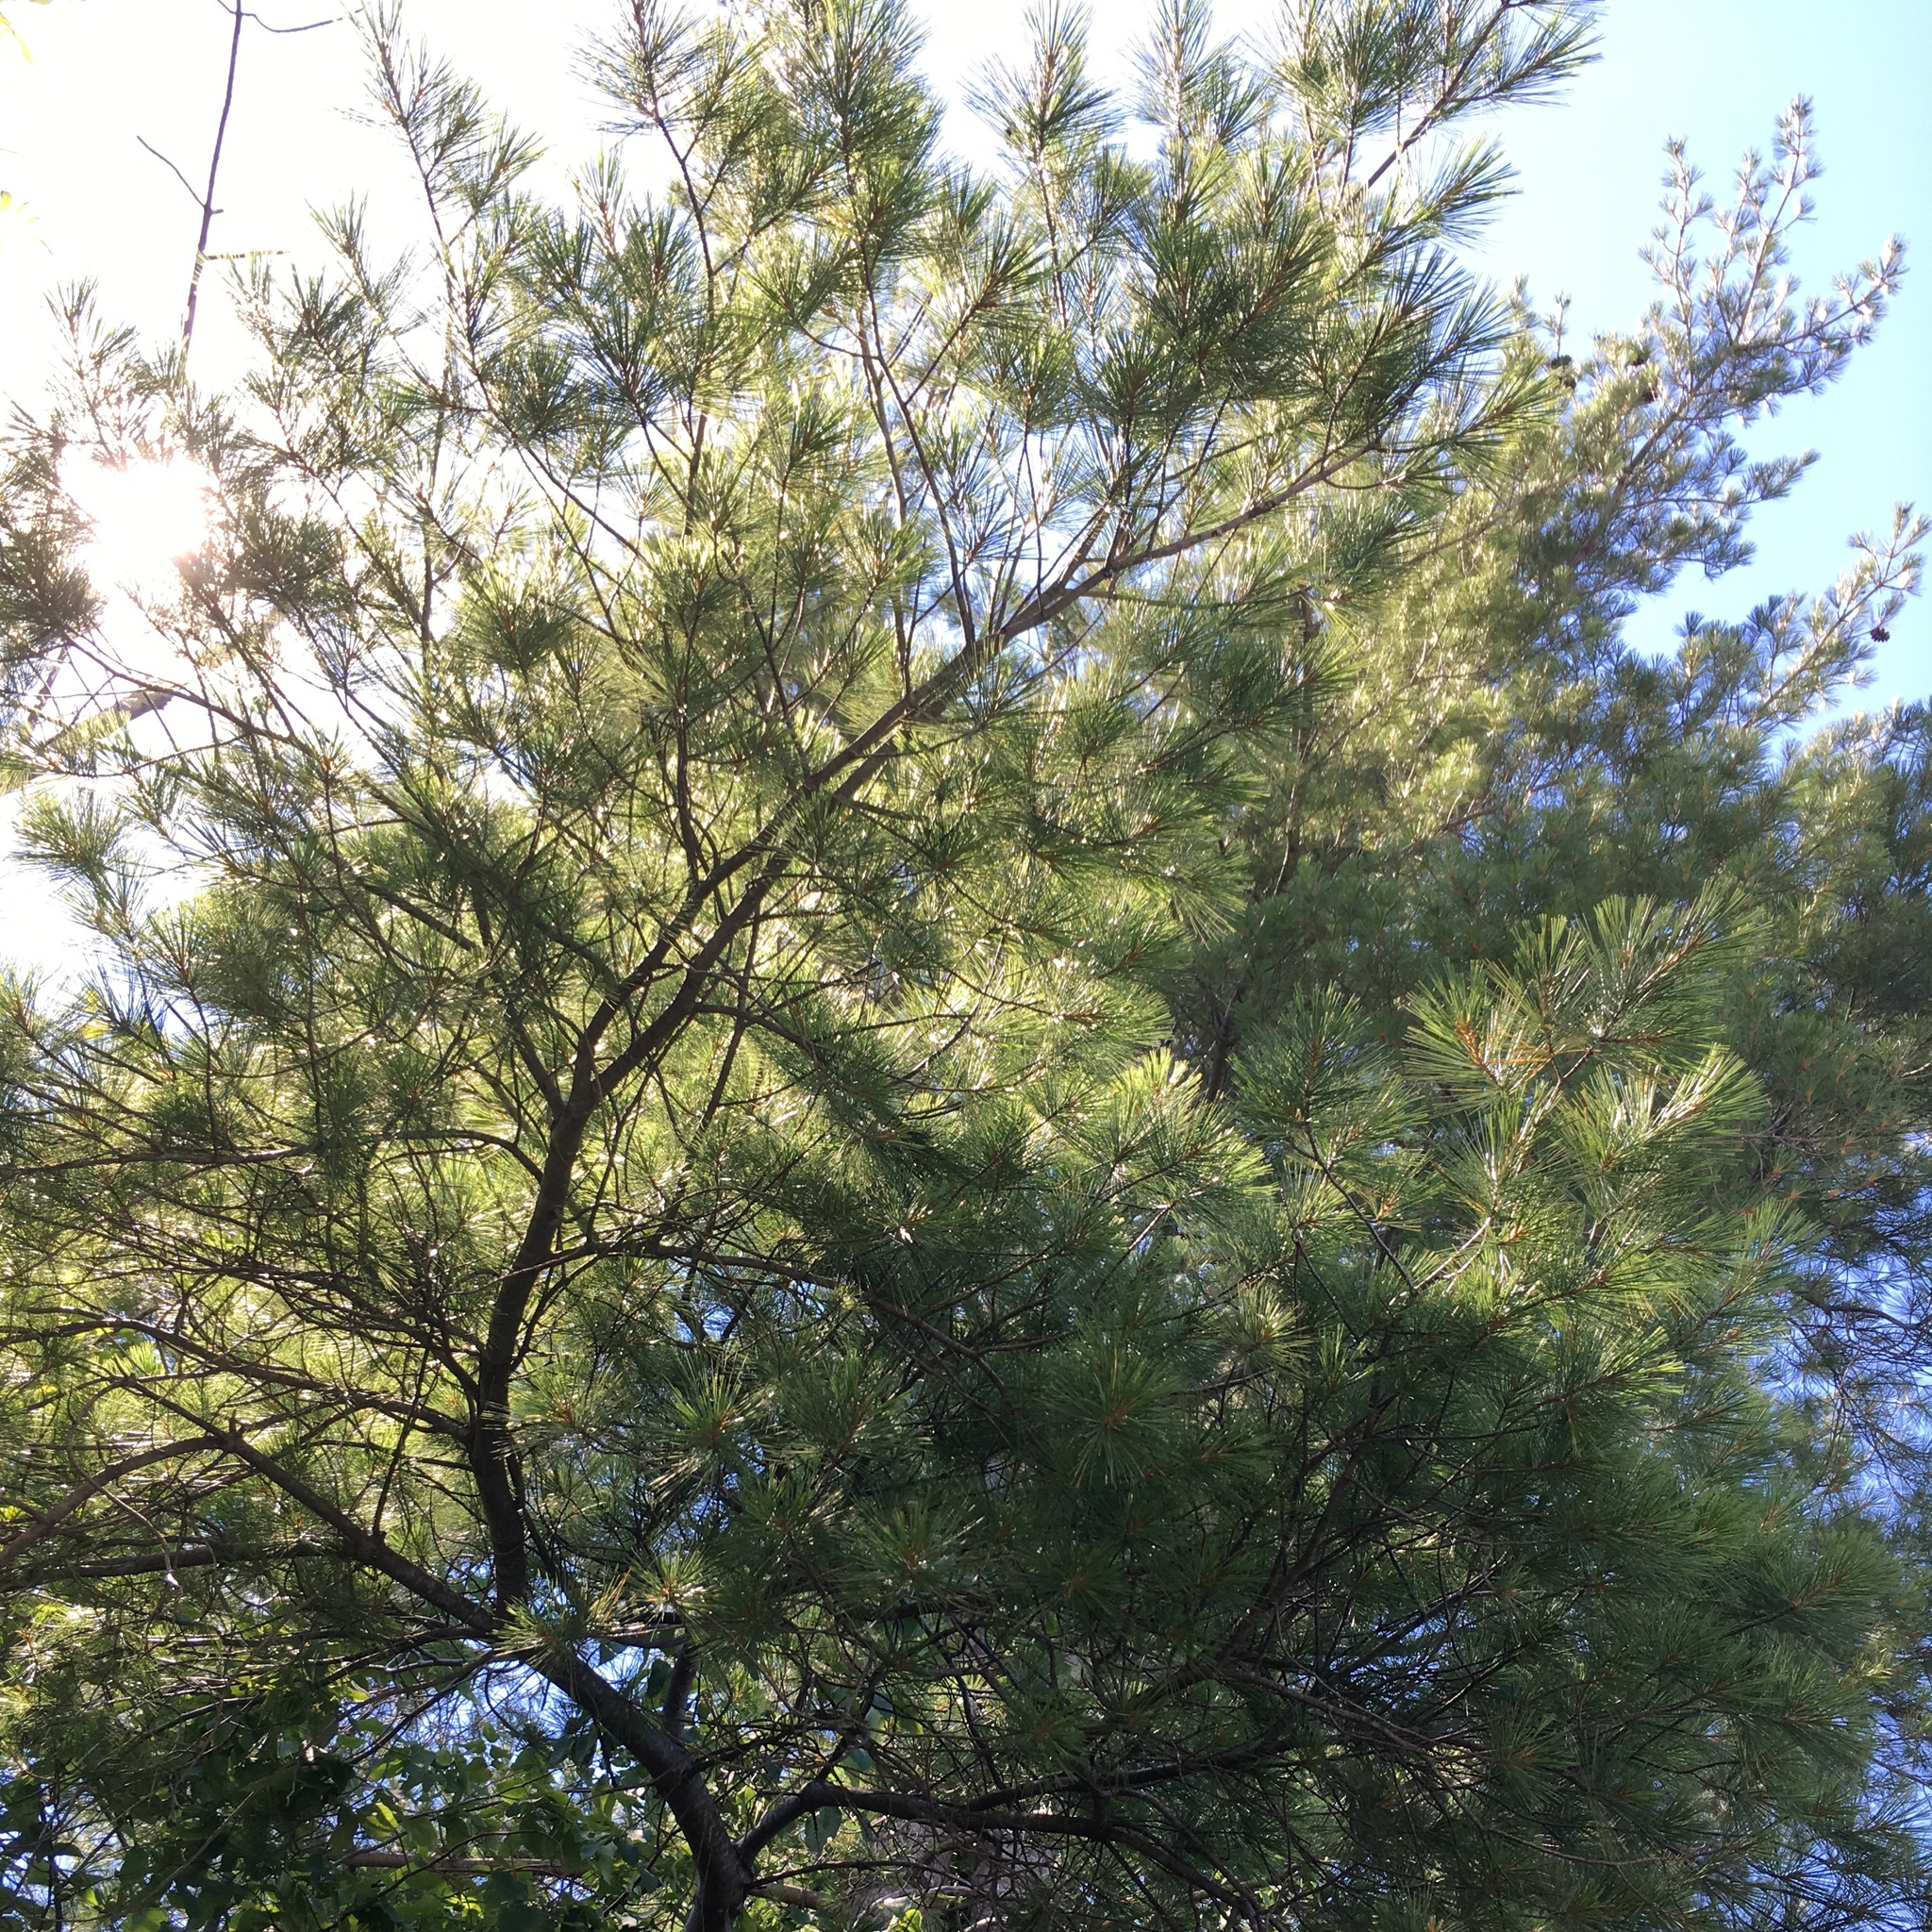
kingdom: Plantae
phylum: Tracheophyta
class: Pinopsida
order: Pinales
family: Pinaceae
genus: Pinus
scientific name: Pinus strobus
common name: Weymouth pine
